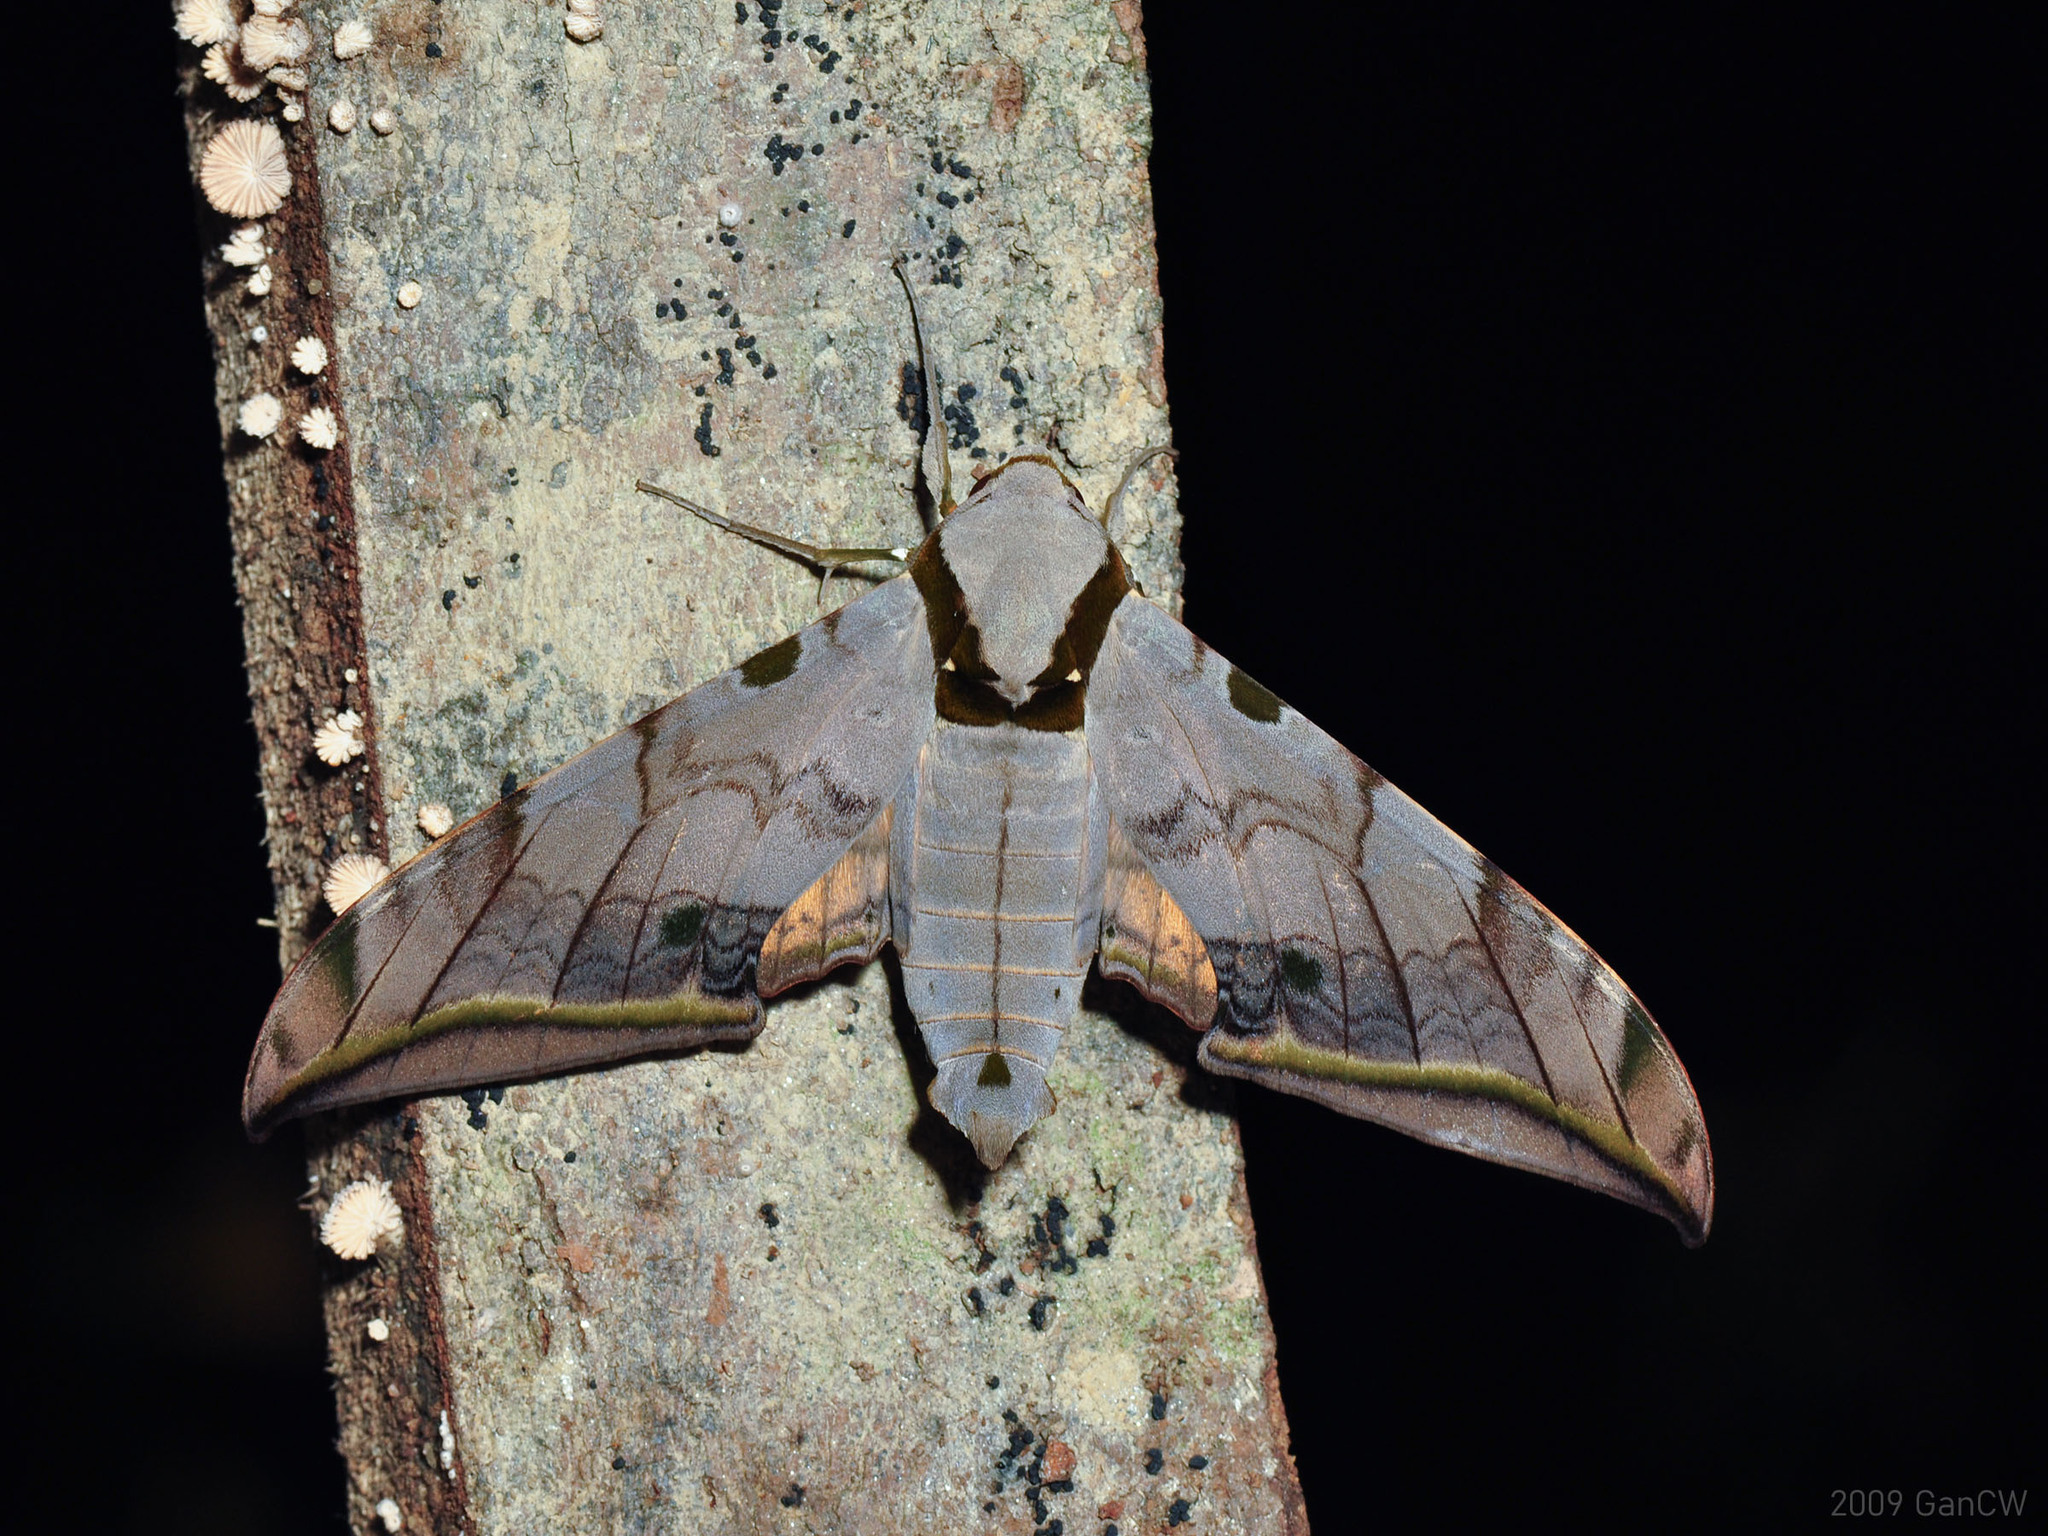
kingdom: Animalia
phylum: Arthropoda
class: Insecta
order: Lepidoptera
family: Sphingidae
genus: Ambulyx
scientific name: Ambulyx sericeipennis
